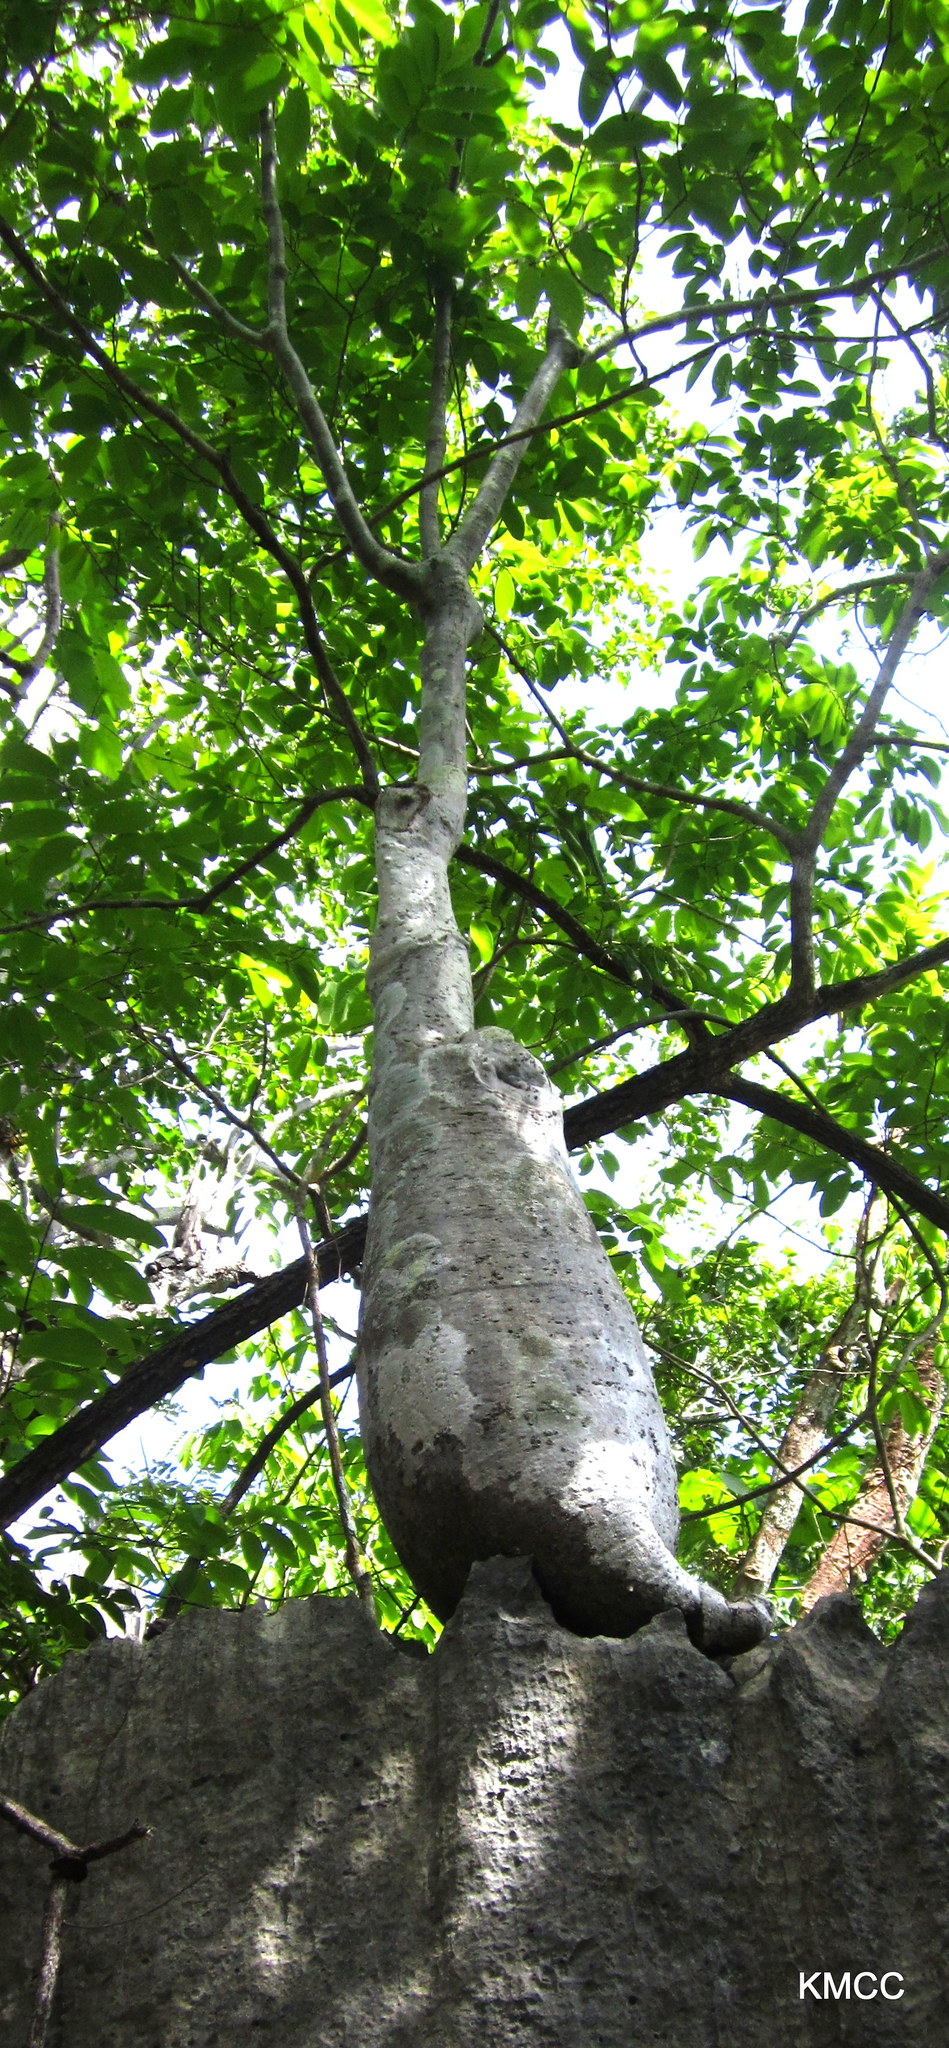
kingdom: Plantae
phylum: Tracheophyta
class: Magnoliopsida
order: Gentianales
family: Apocynaceae
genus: Pachypodium
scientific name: Pachypodium decaryi
